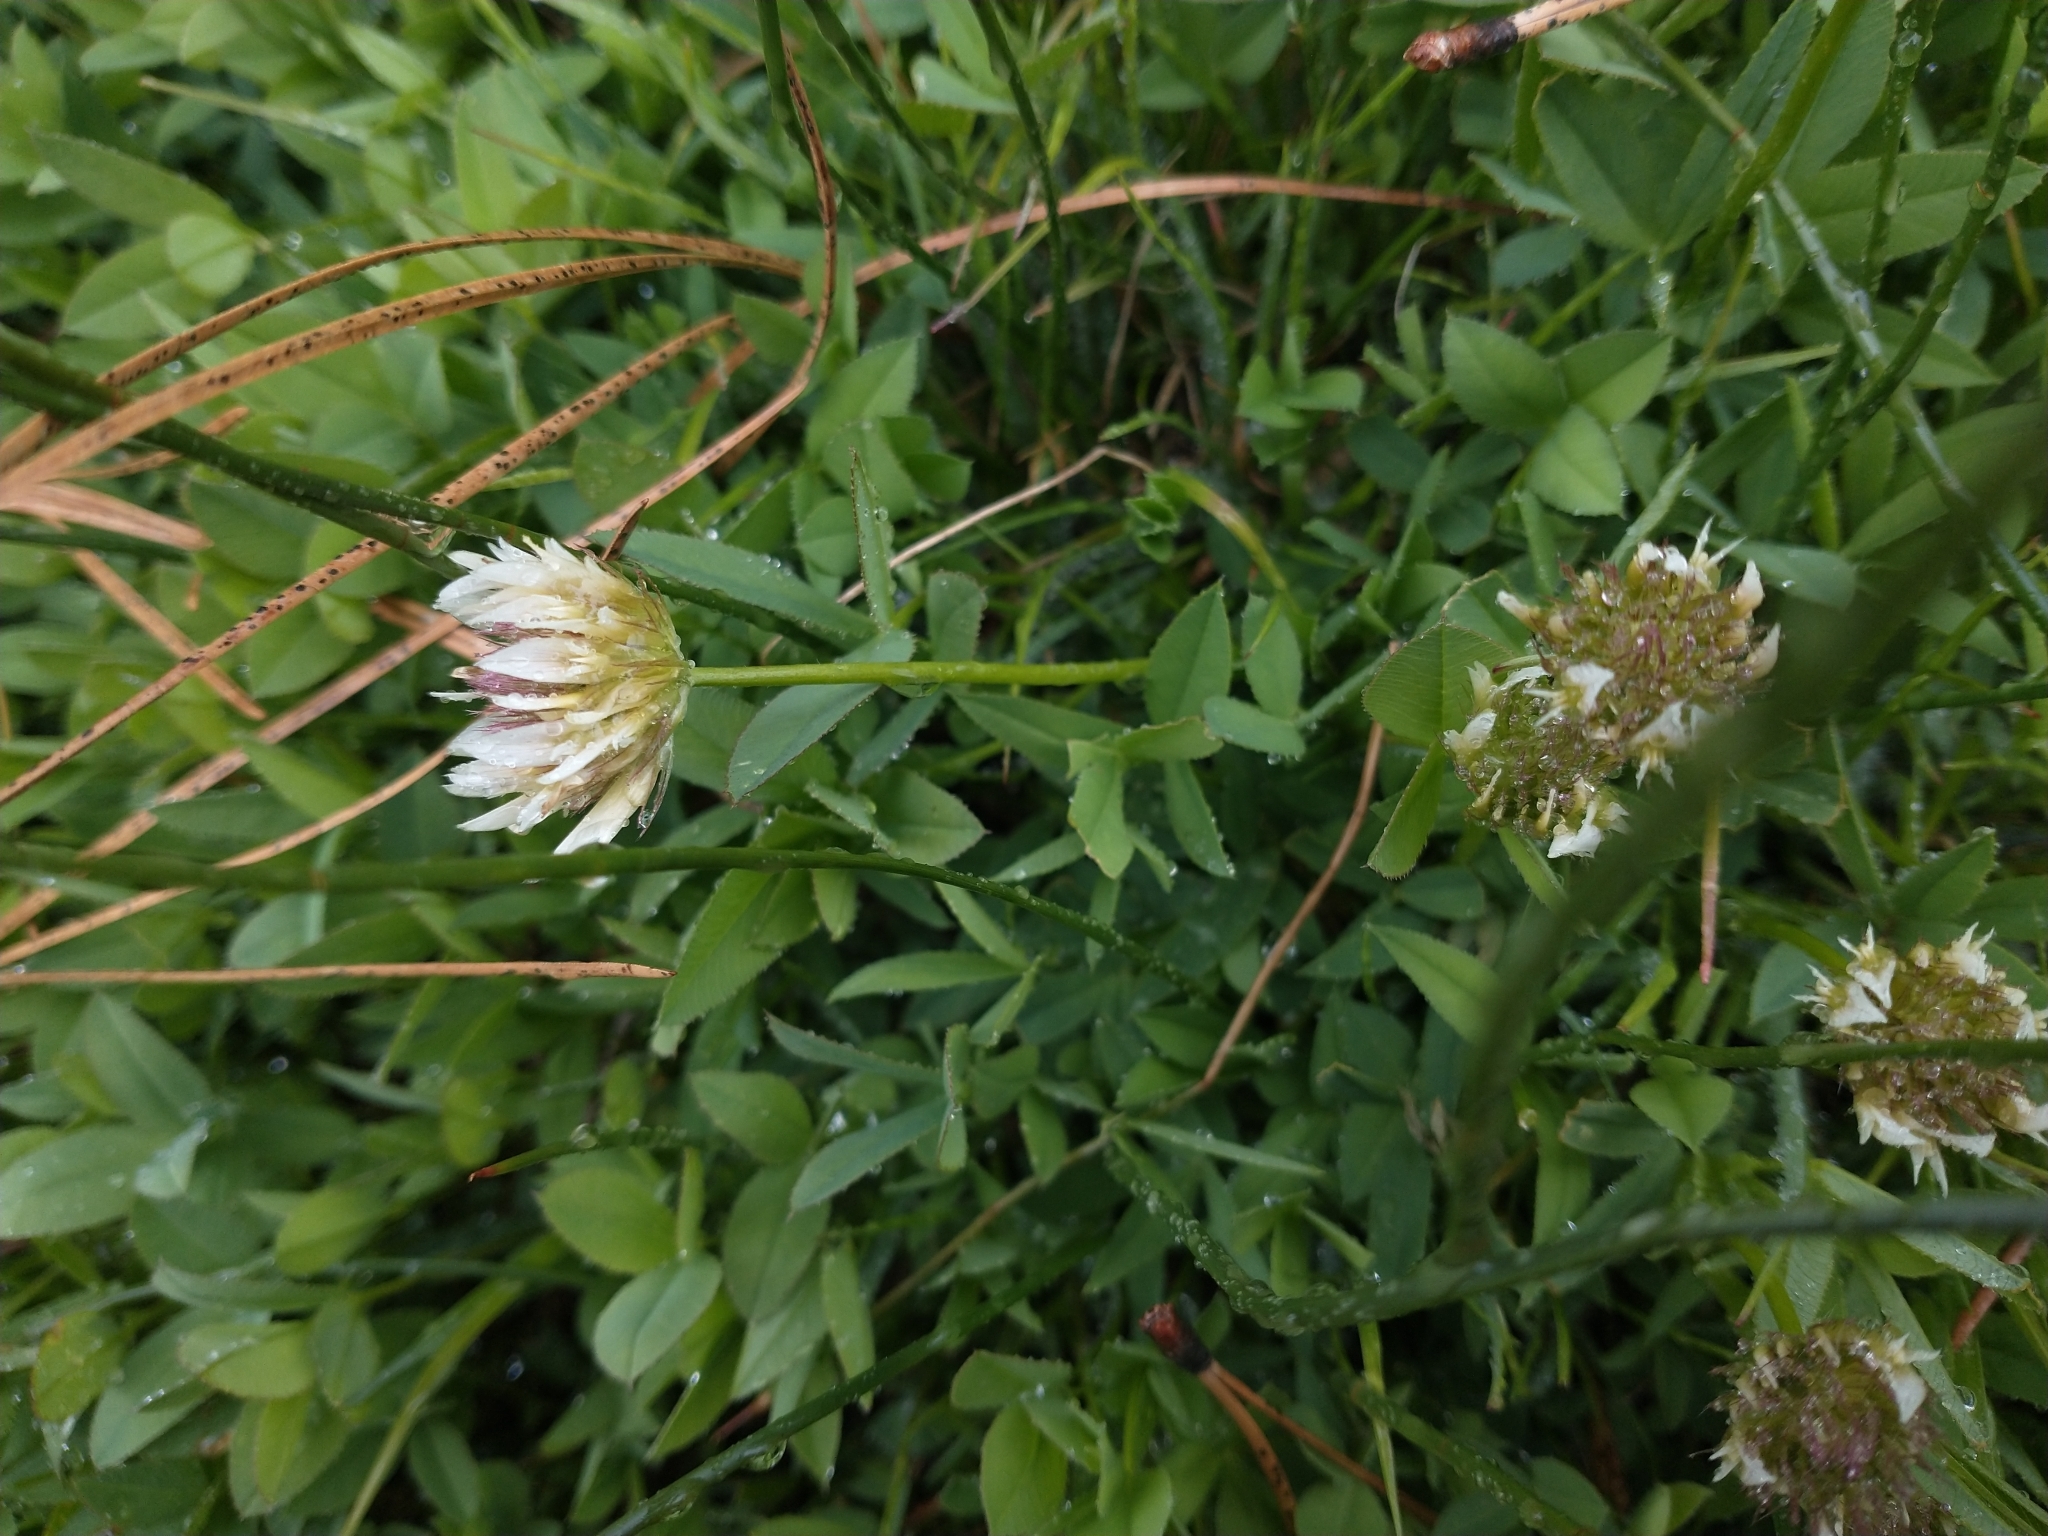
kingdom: Plantae
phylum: Tracheophyta
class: Magnoliopsida
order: Fabales
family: Fabaceae
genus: Trifolium
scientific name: Trifolium longipes
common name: Long-stalk clover
